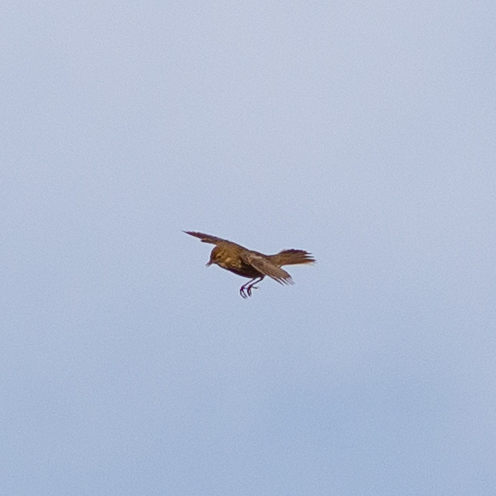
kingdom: Animalia
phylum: Chordata
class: Aves
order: Passeriformes
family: Motacillidae
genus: Anthus
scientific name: Anthus trivialis
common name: Tree pipit
